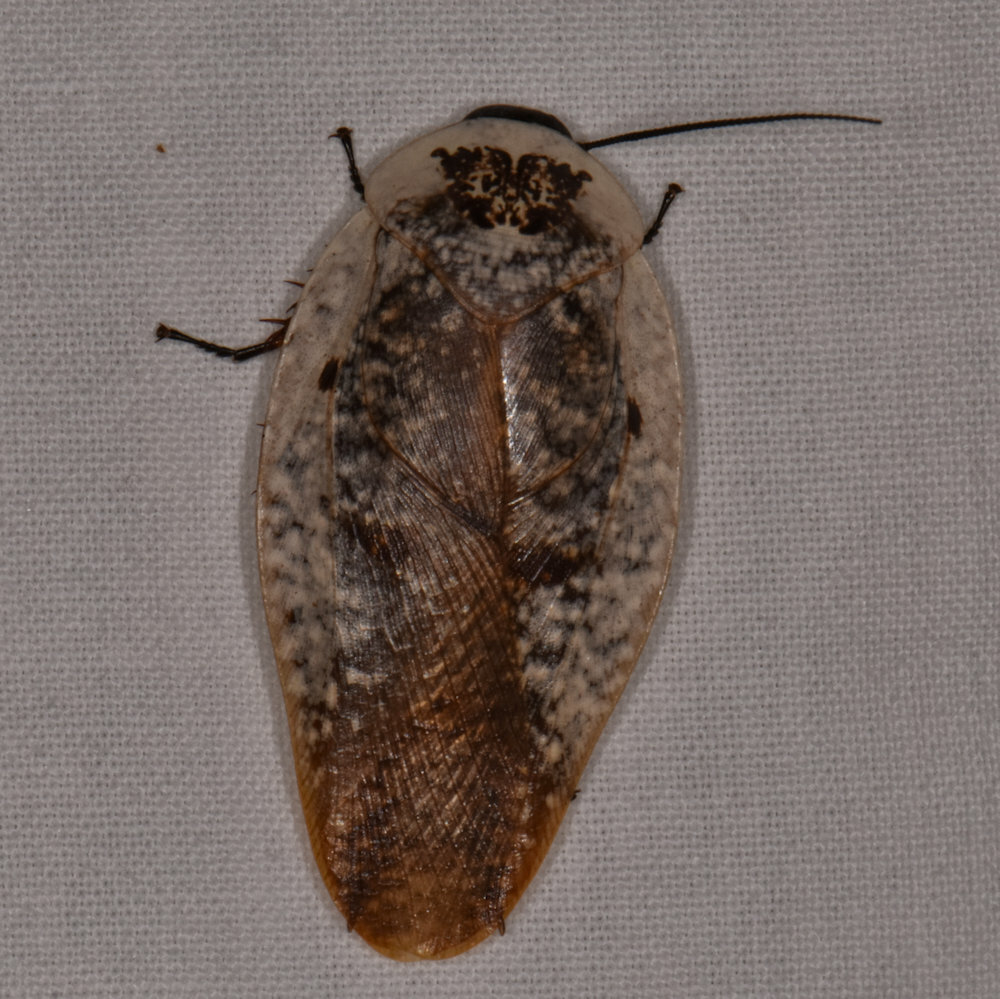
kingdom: Animalia
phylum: Arthropoda
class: Insecta
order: Blattodea
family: Blaberidae
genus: Gyna
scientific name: Gyna caffrorum
